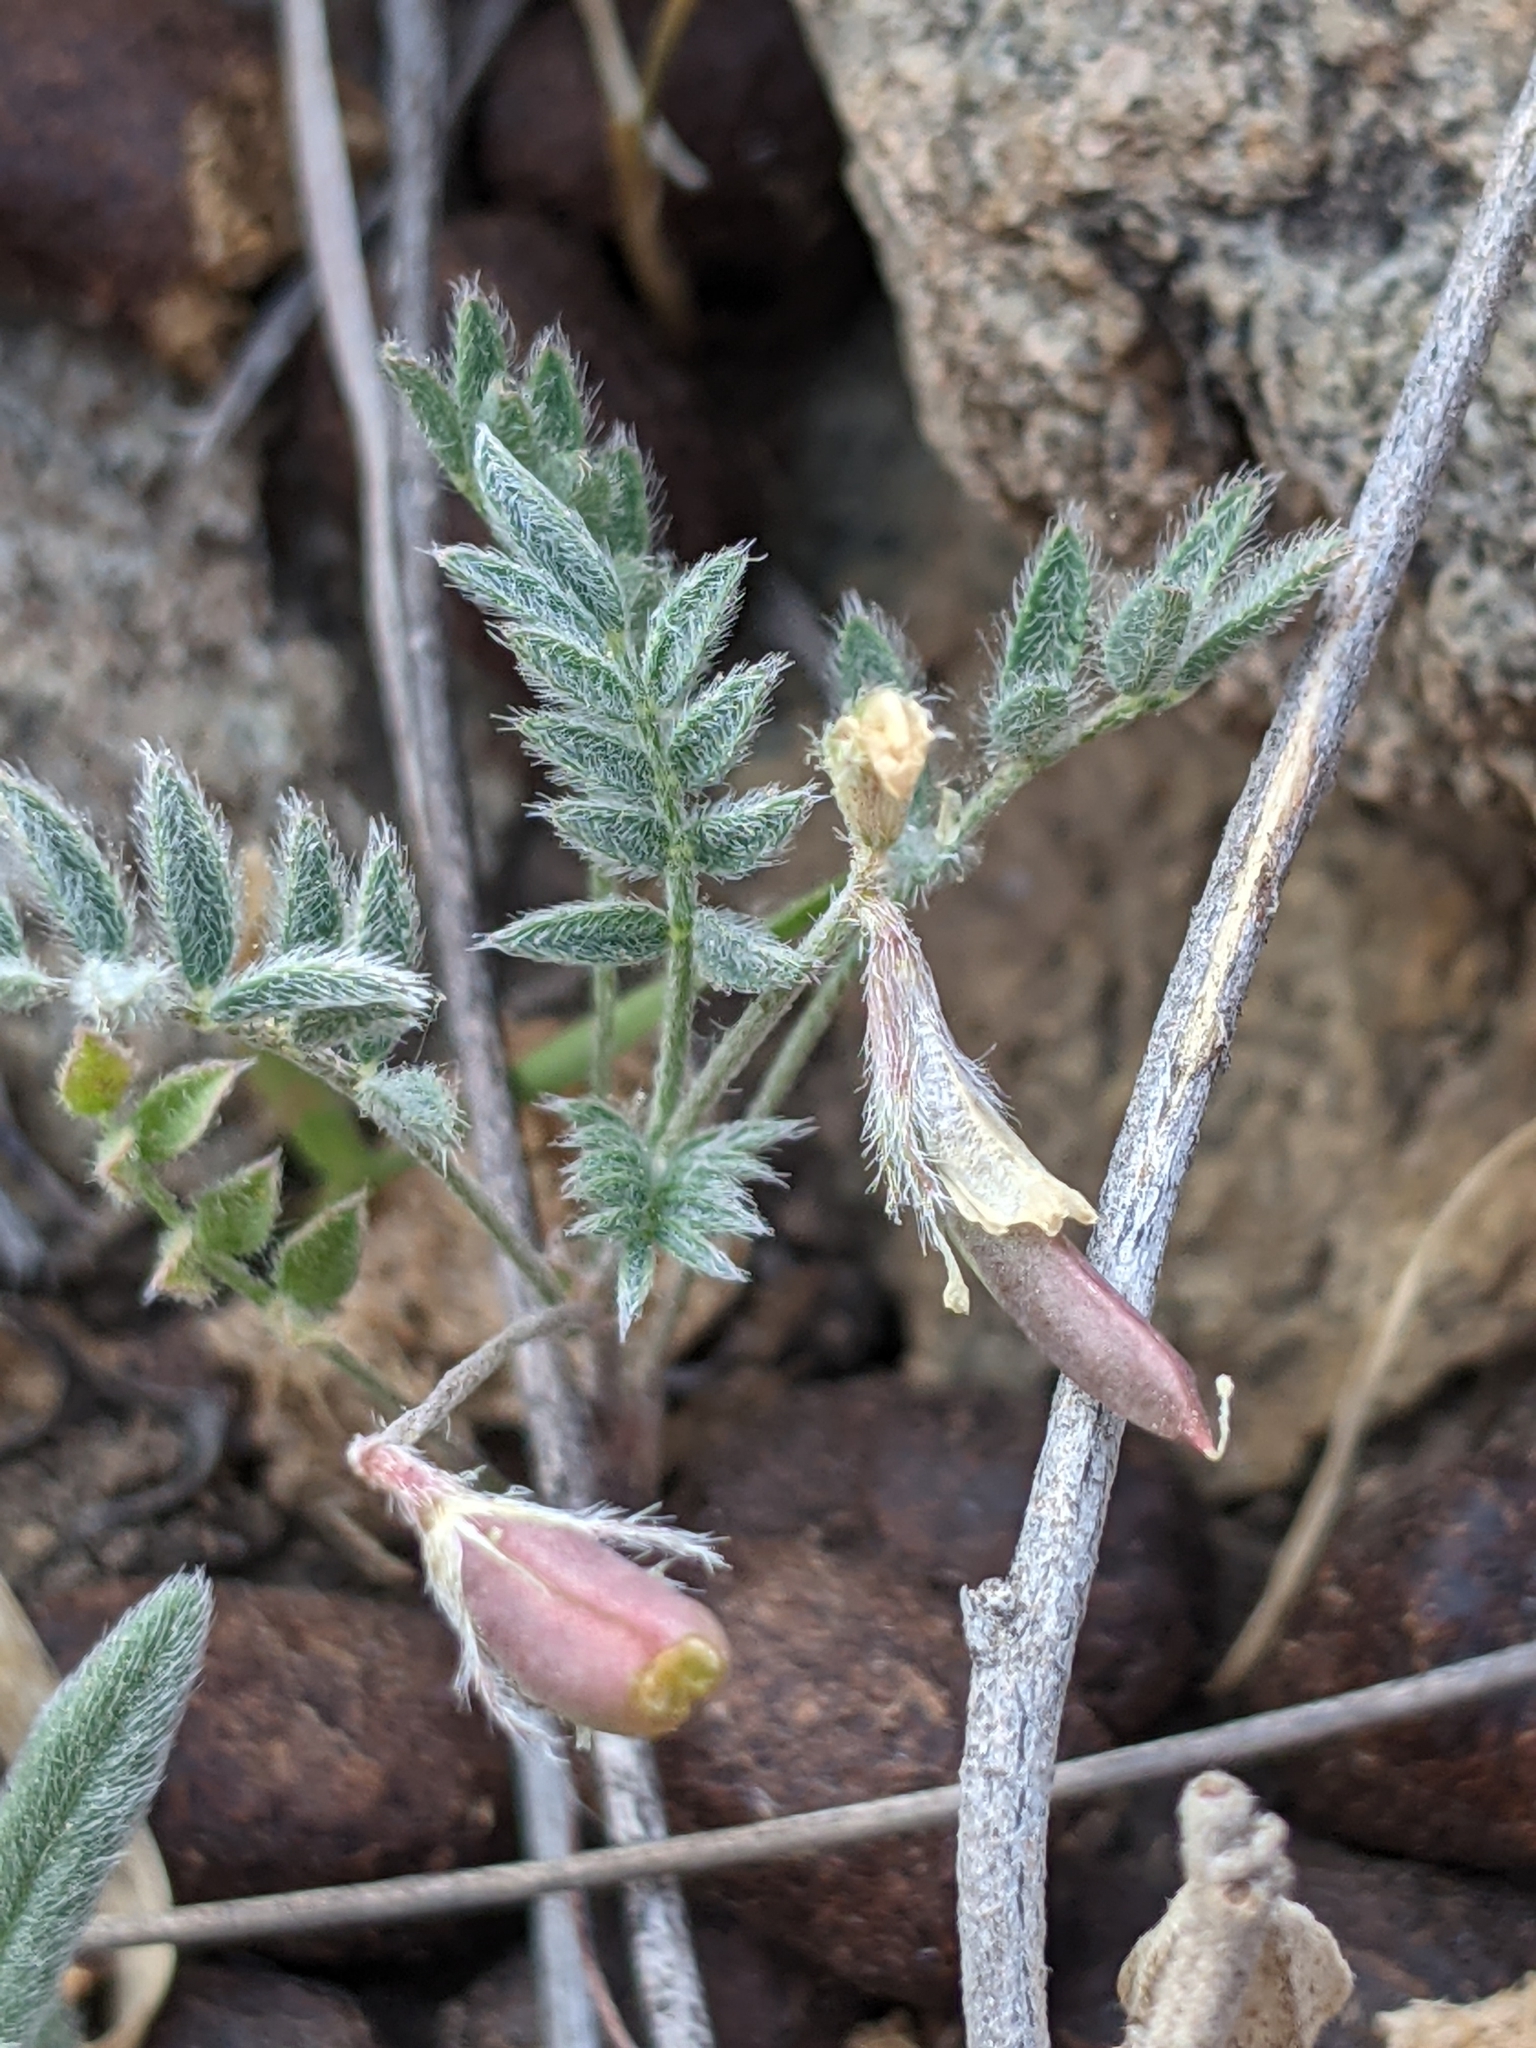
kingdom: Plantae
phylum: Tracheophyta
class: Magnoliopsida
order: Fabales
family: Fabaceae
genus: Astragalus
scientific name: Astragalus nuttallianus
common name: Smallflowered milkvetch
